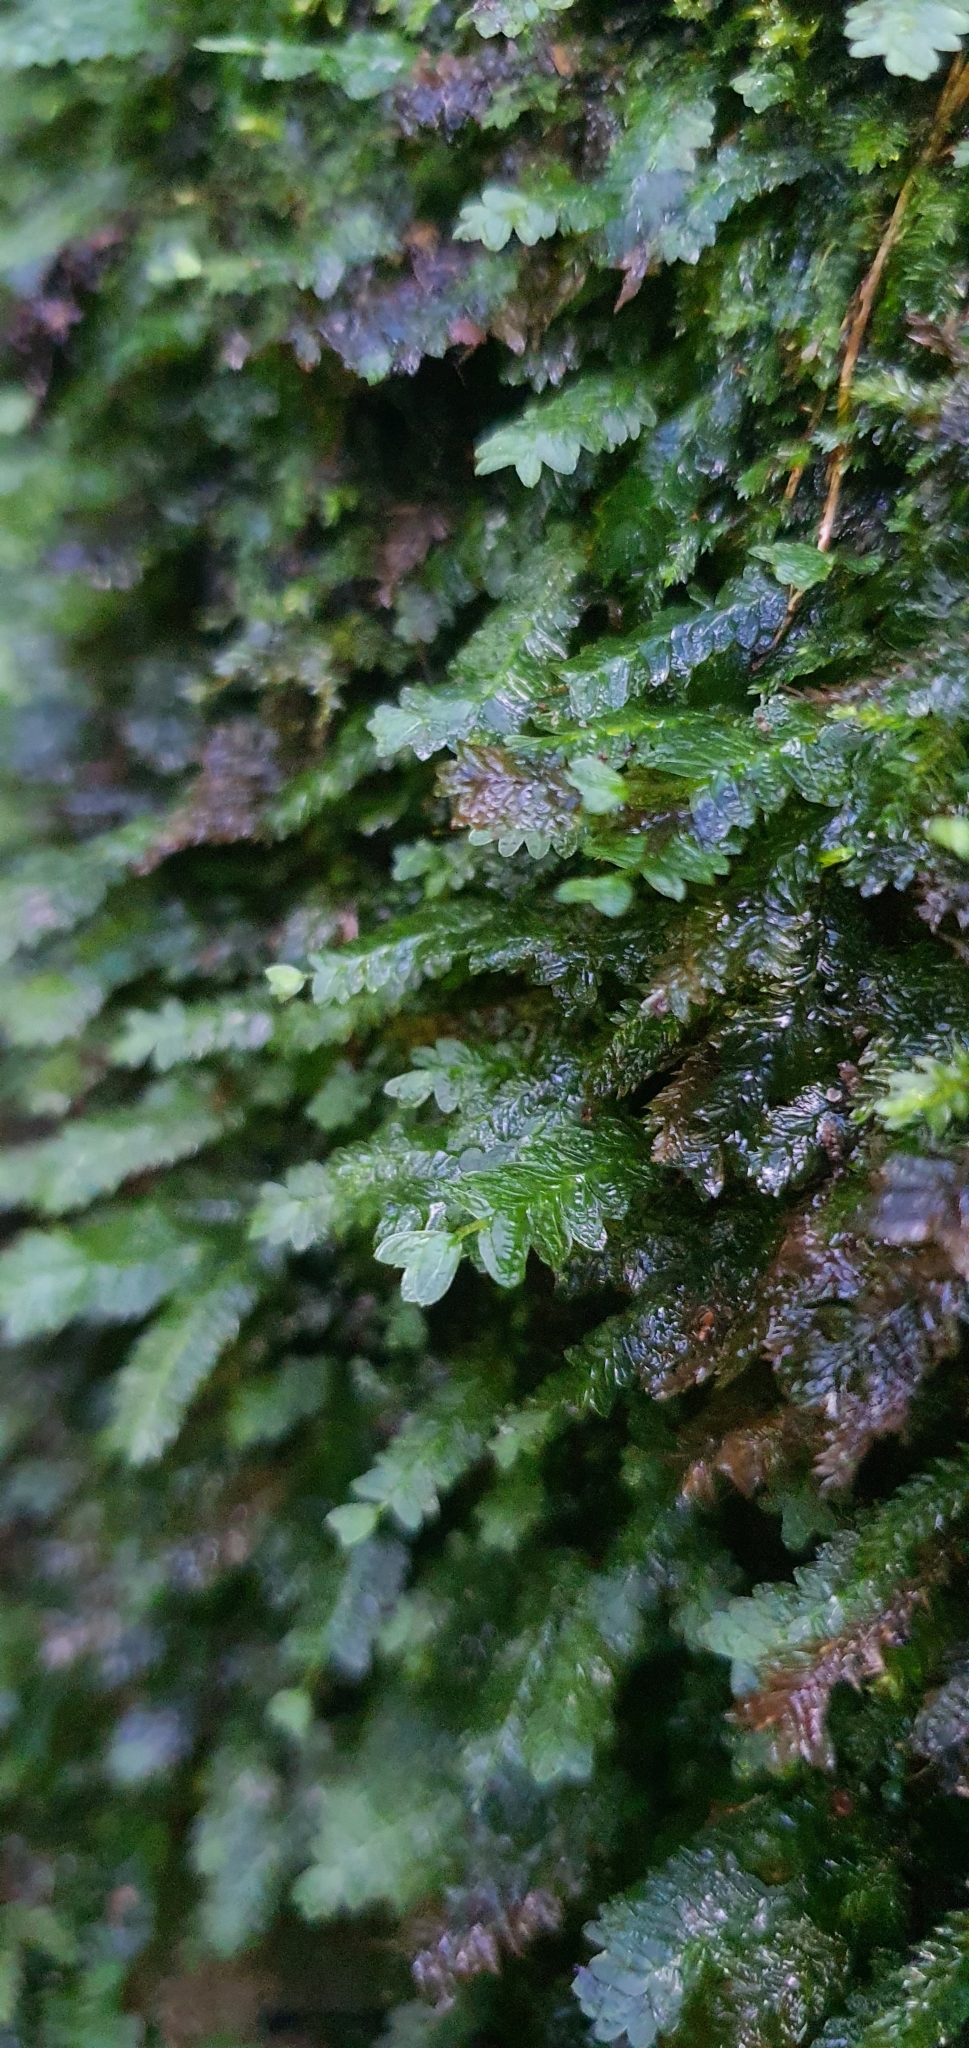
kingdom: Plantae
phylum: Bryophyta
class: Bryopsida
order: Aulacomniales
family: Aulacomniaceae
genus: Mesochaete
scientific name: Mesochaete undulata
